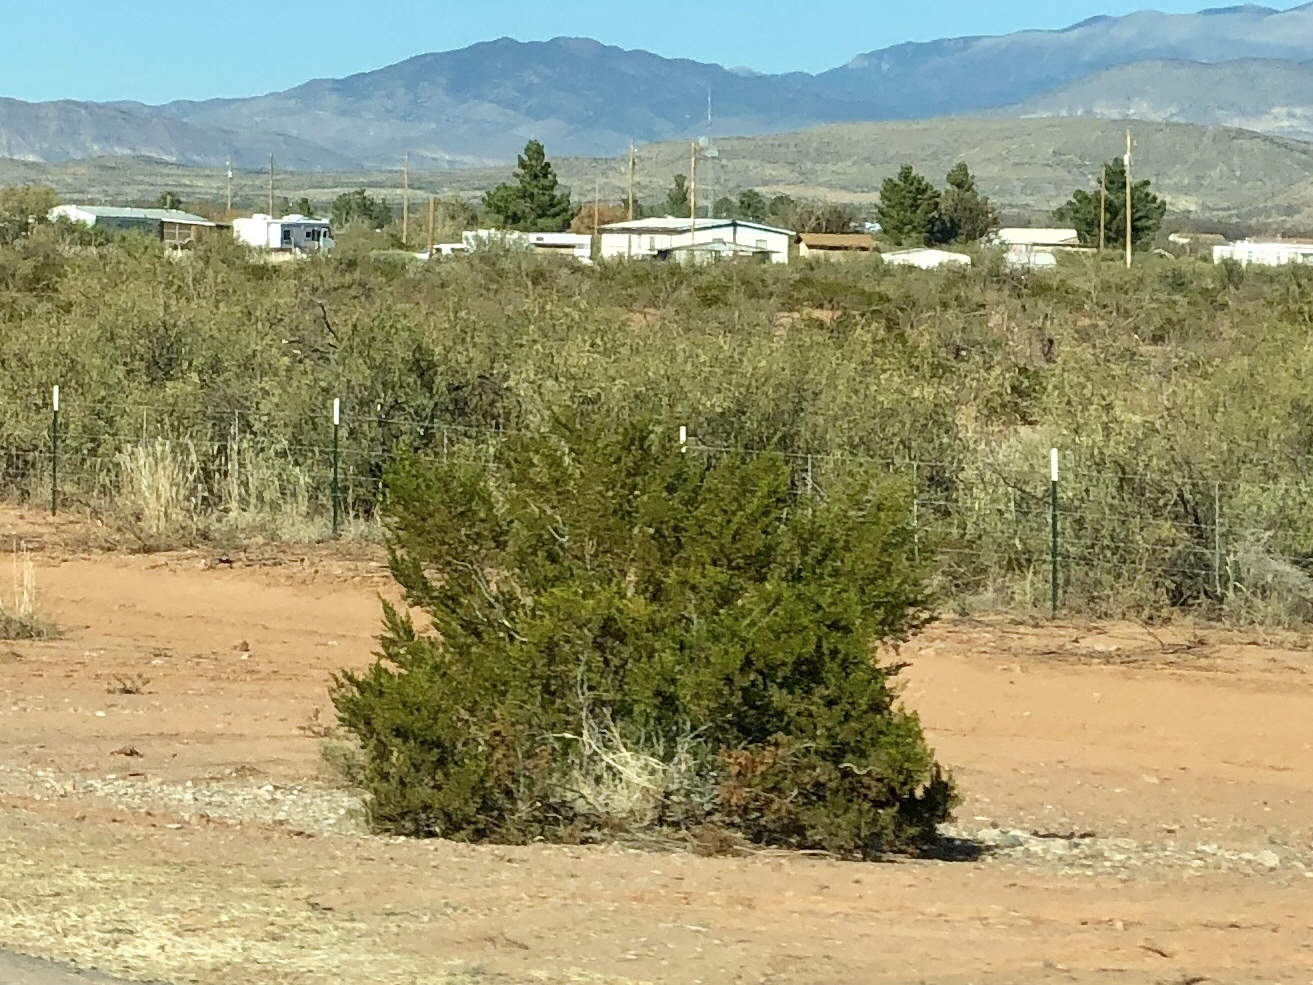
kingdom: Plantae
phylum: Tracheophyta
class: Magnoliopsida
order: Zygophyllales
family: Zygophyllaceae
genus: Larrea
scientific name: Larrea tridentata
